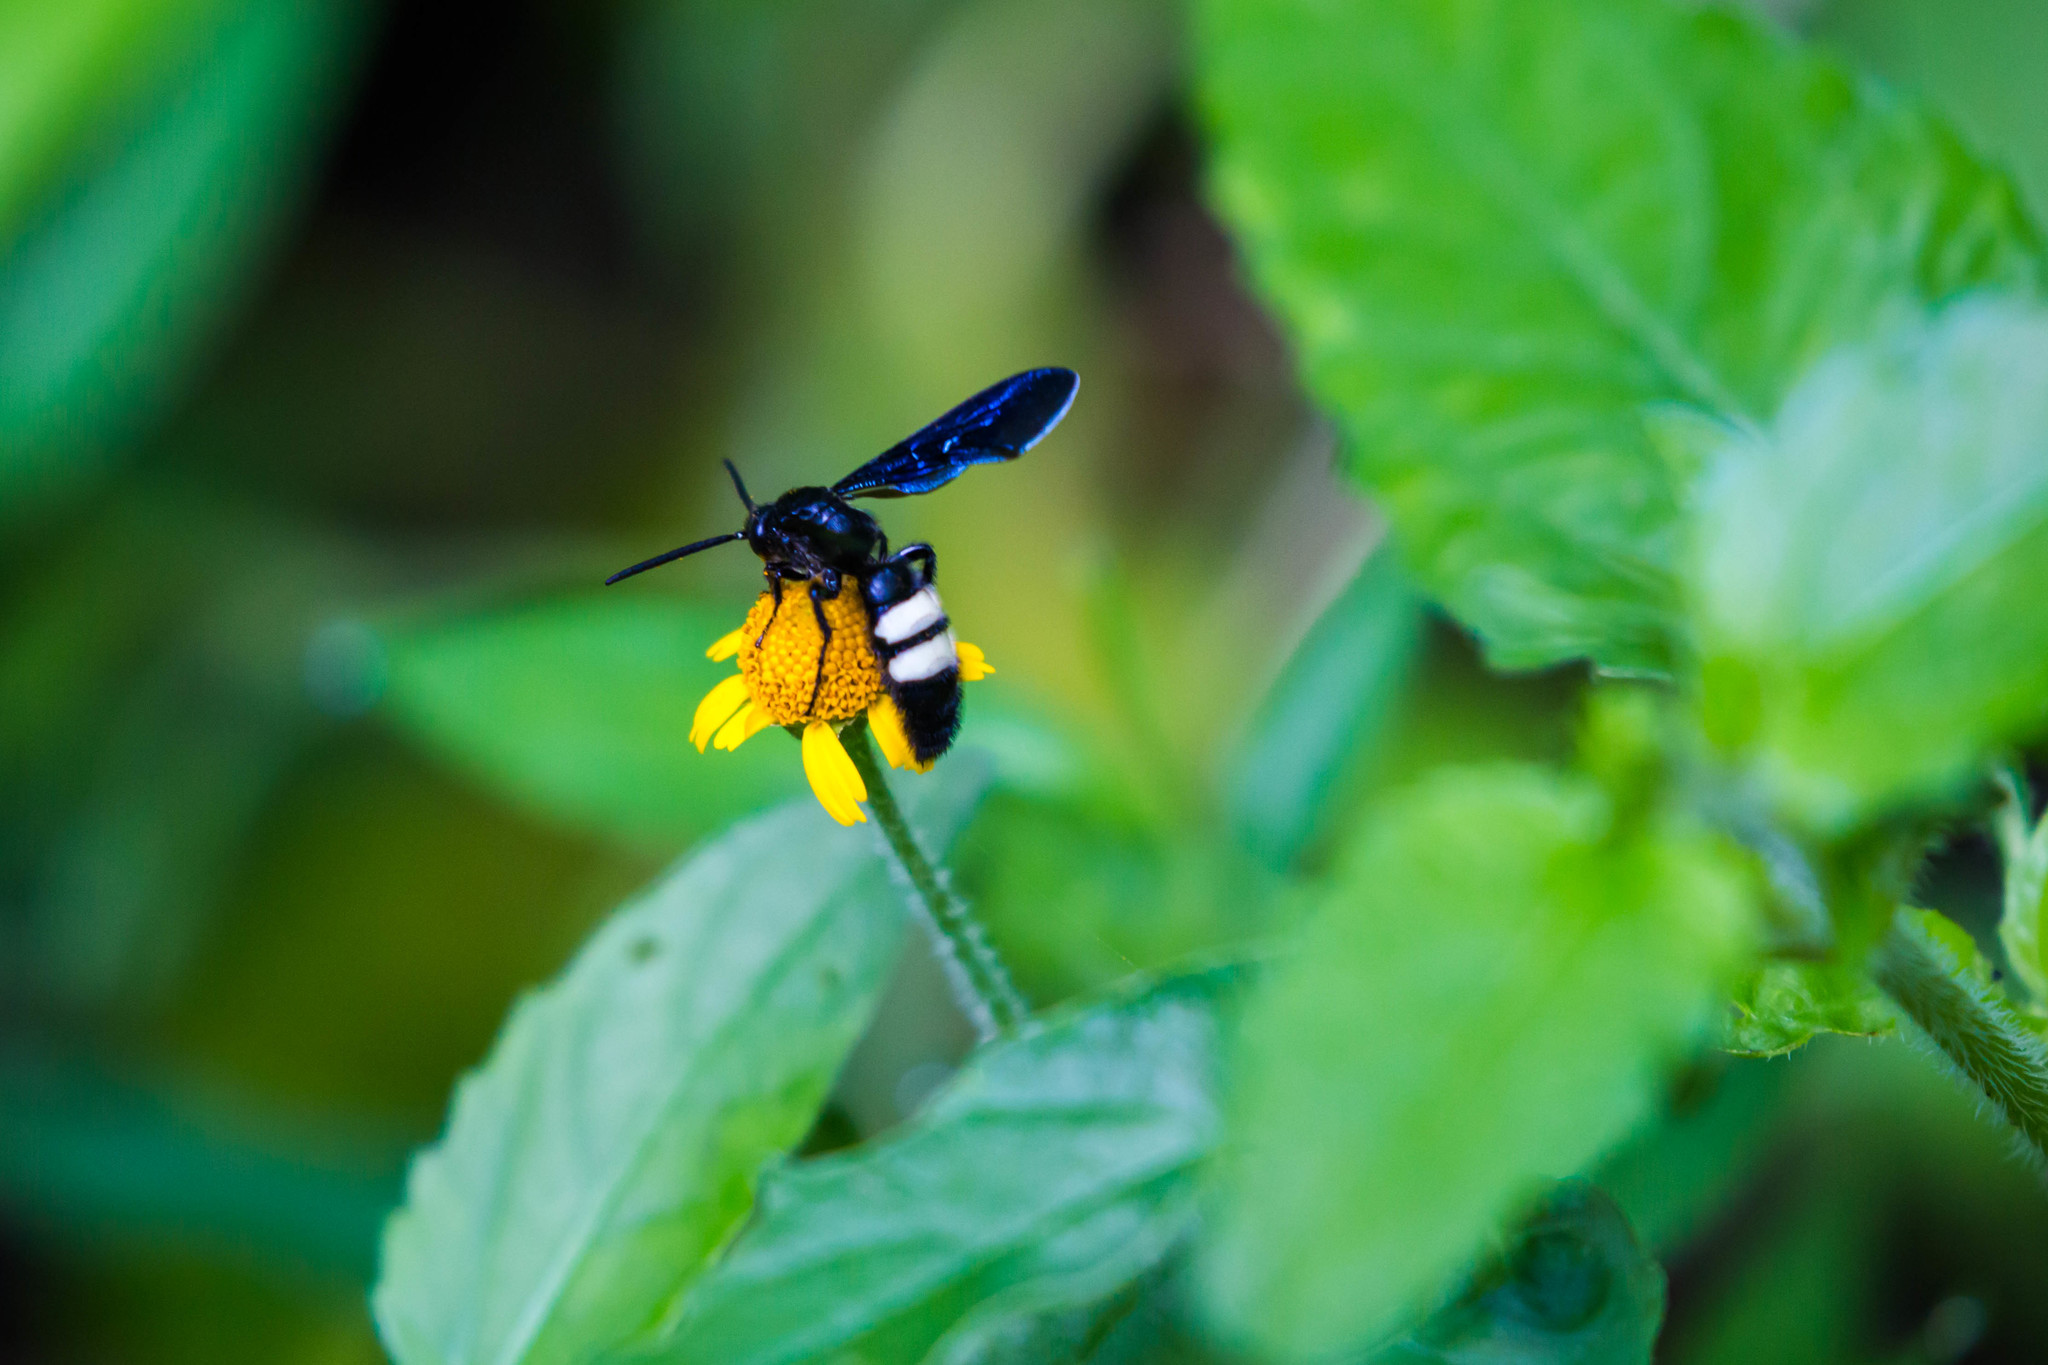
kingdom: Animalia
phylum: Arthropoda
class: Insecta
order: Hymenoptera
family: Scoliidae
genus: Scolia
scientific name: Scolia bicincta
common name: Double-banded scoliid wasp
